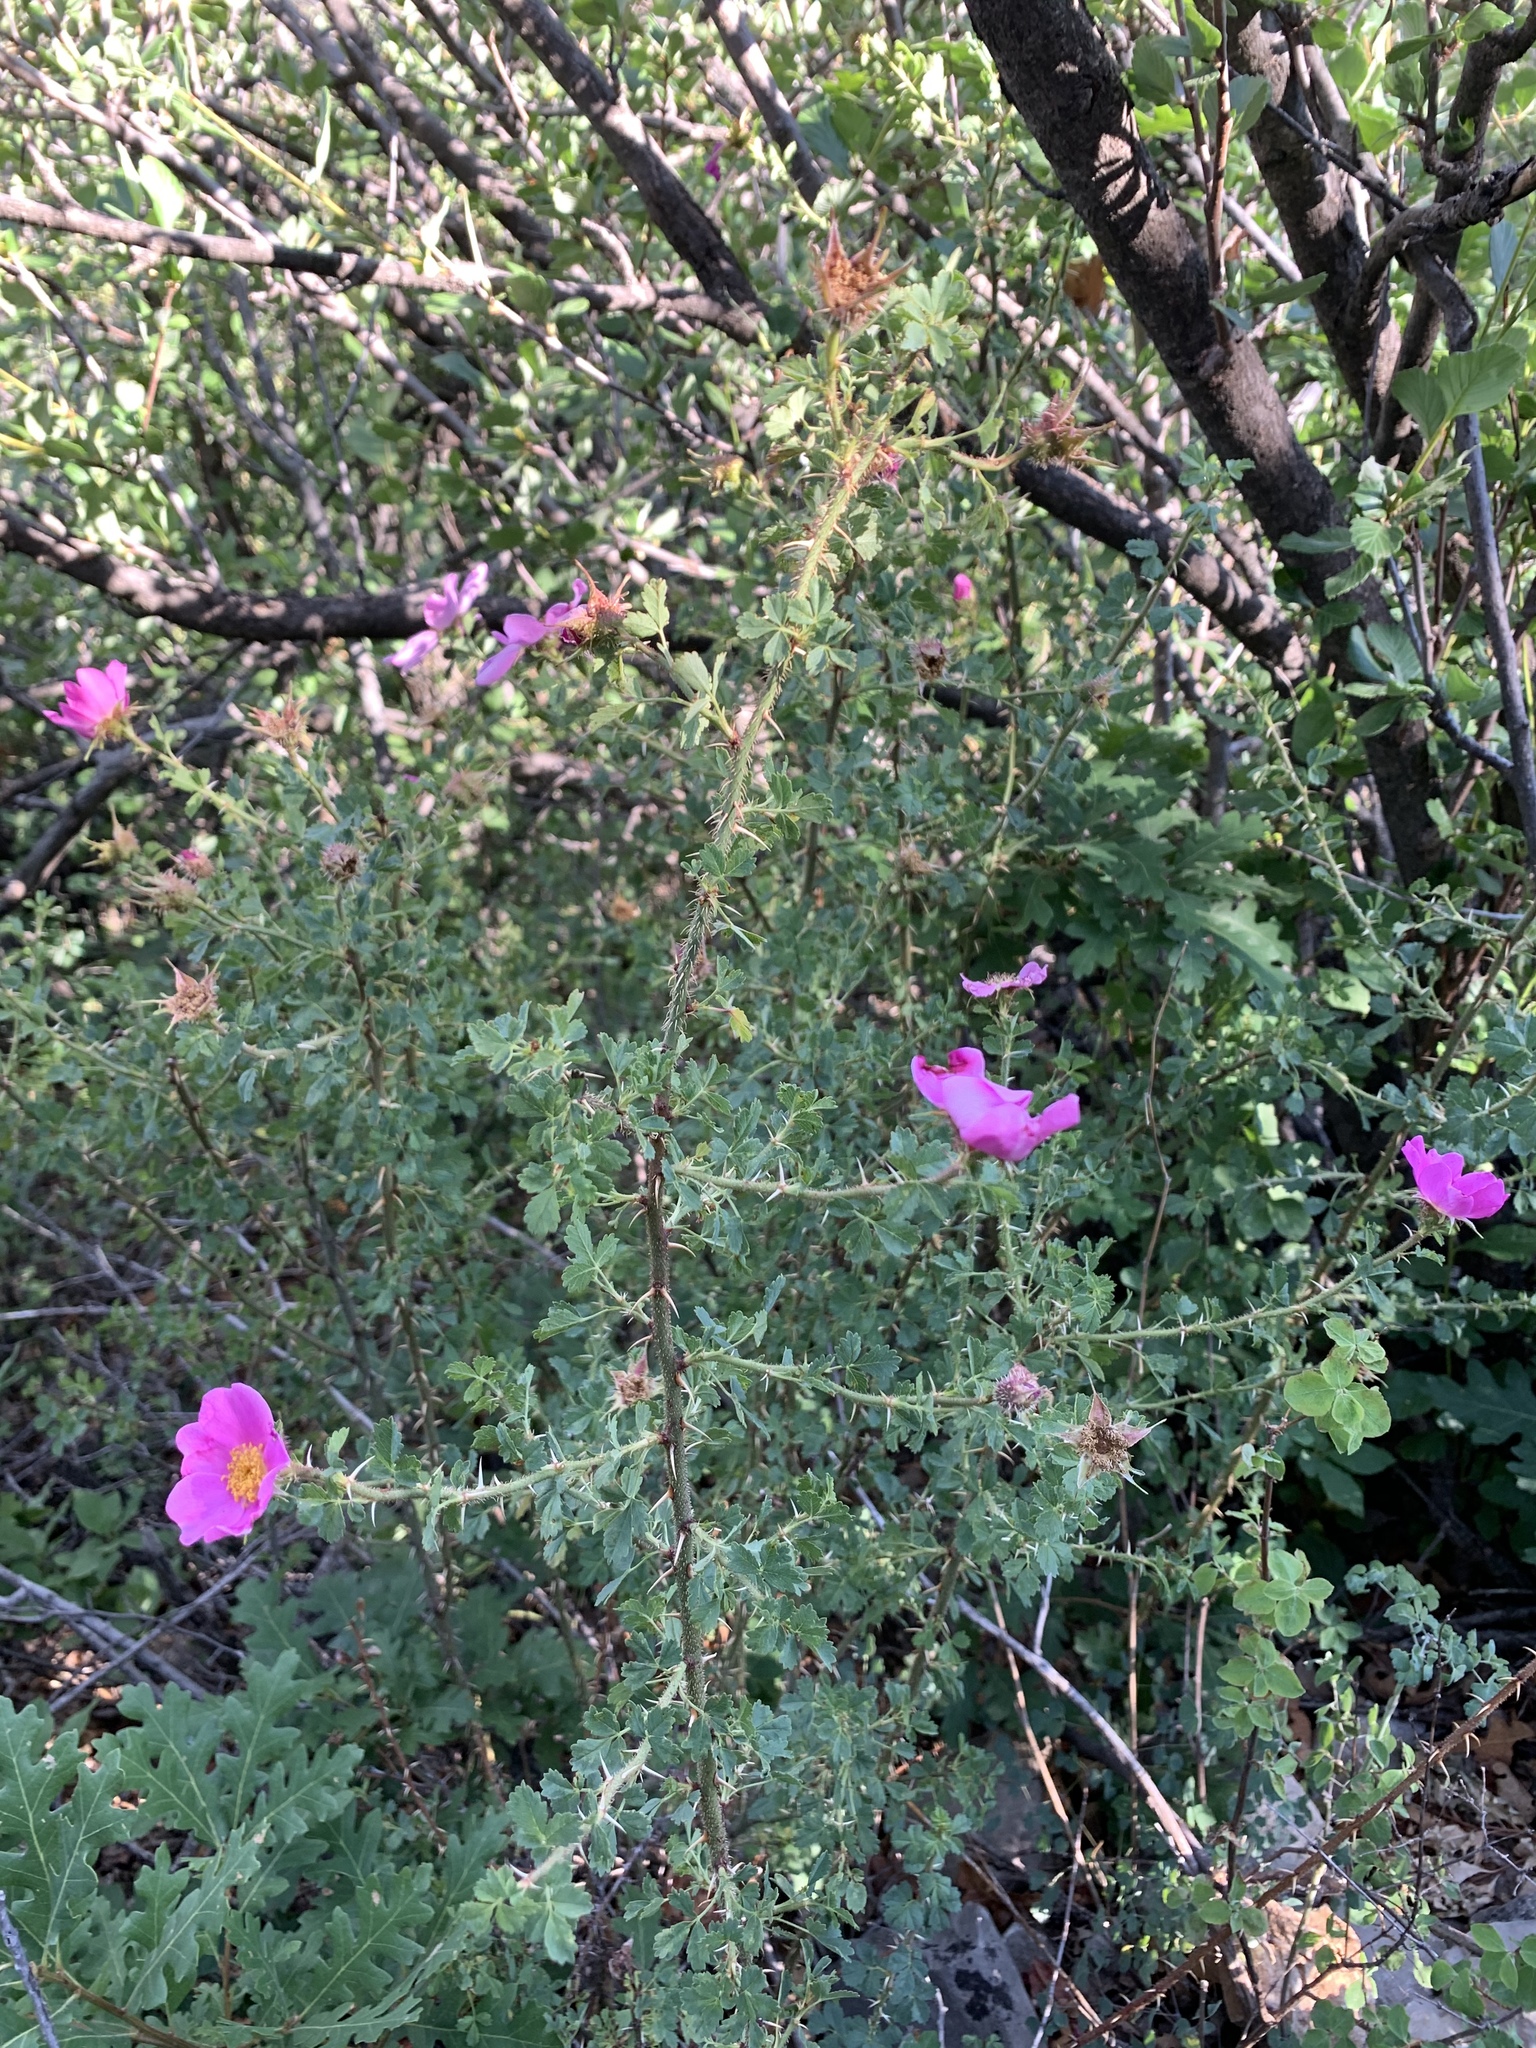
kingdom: Plantae
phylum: Tracheophyta
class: Magnoliopsida
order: Rosales
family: Rosaceae
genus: Rosa
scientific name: Rosa stellata
